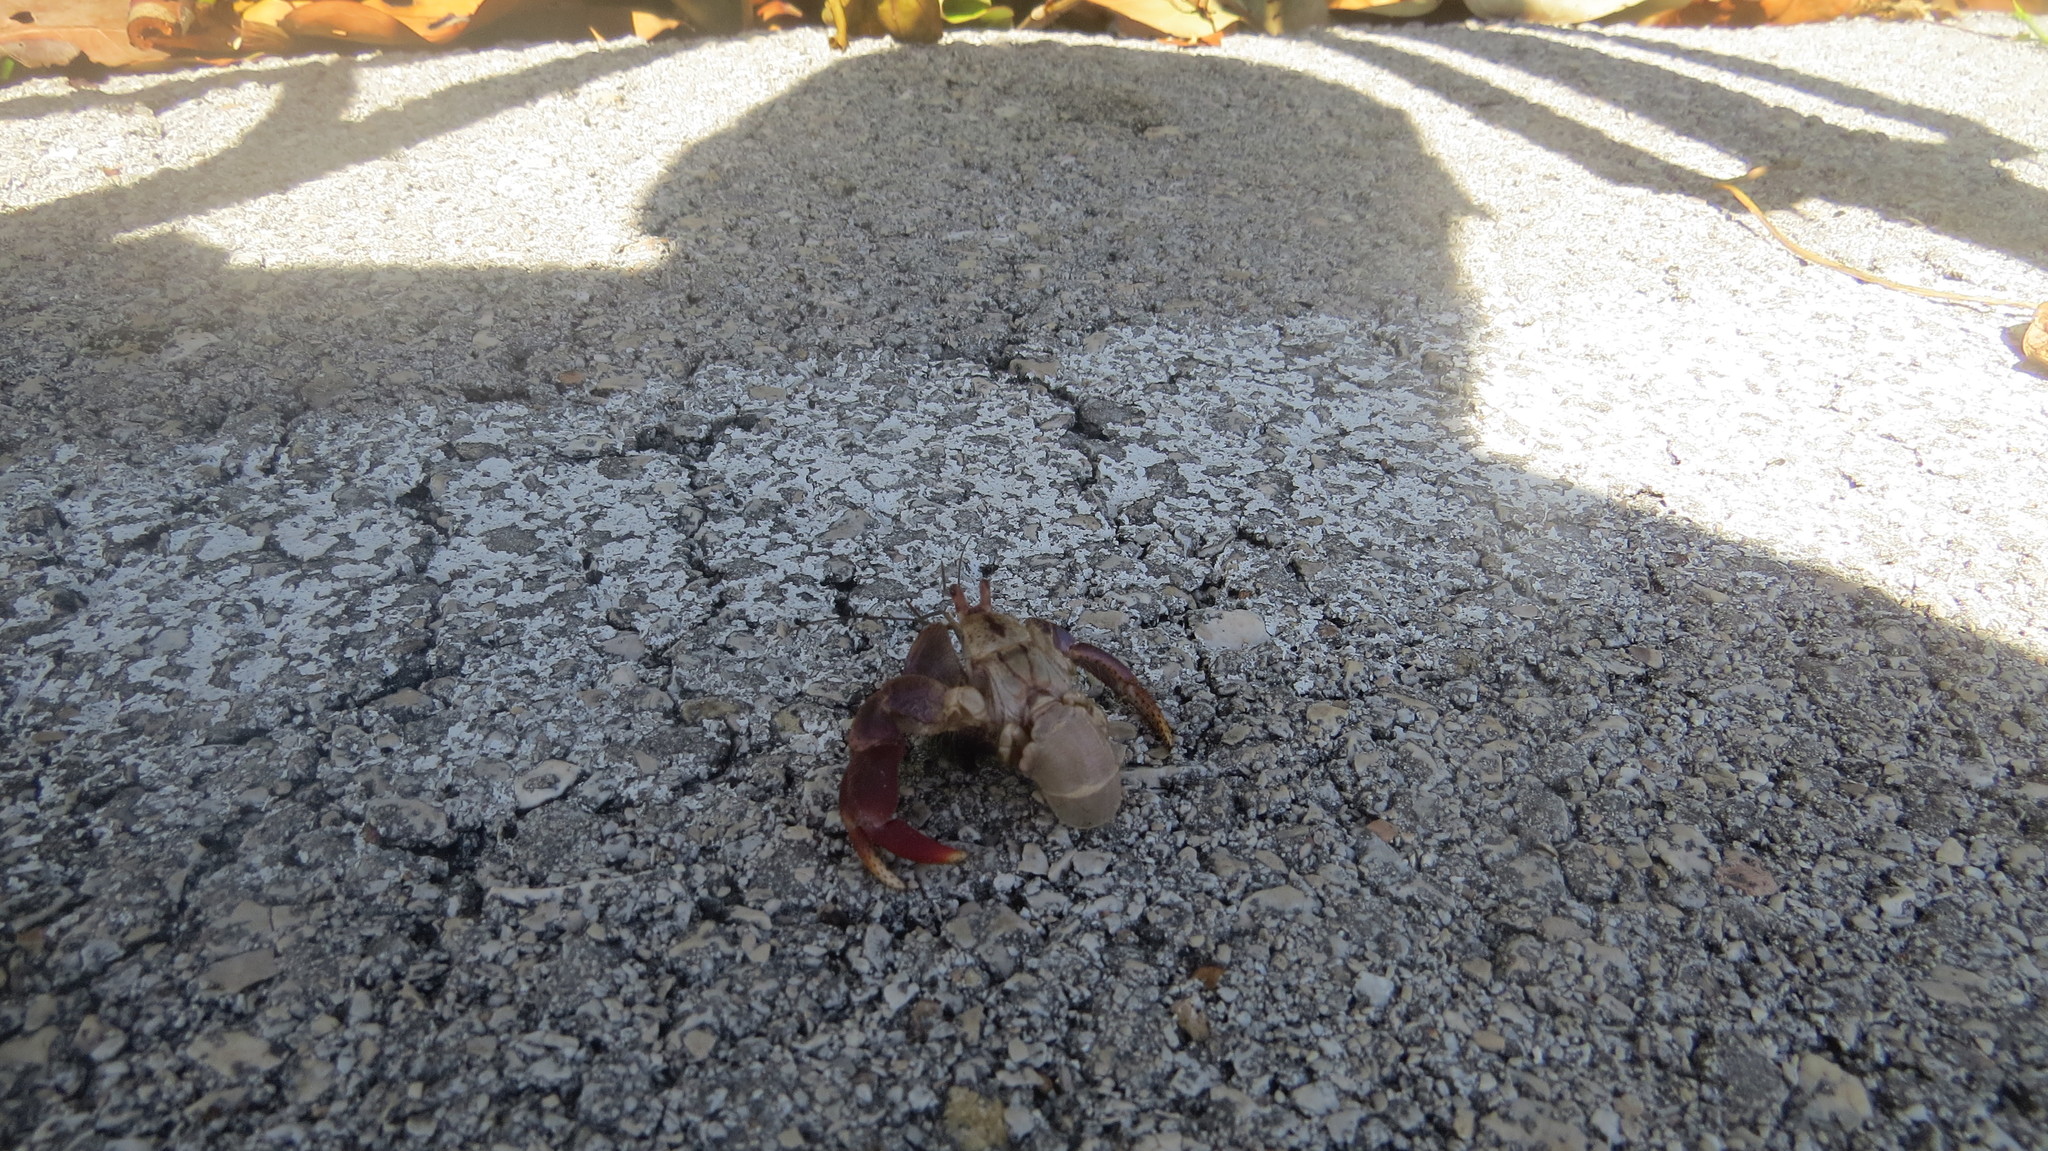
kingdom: Animalia
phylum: Arthropoda
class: Malacostraca
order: Decapoda
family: Coenobitidae
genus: Coenobita
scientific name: Coenobita clypeatus
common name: Caribbean hermit crab
